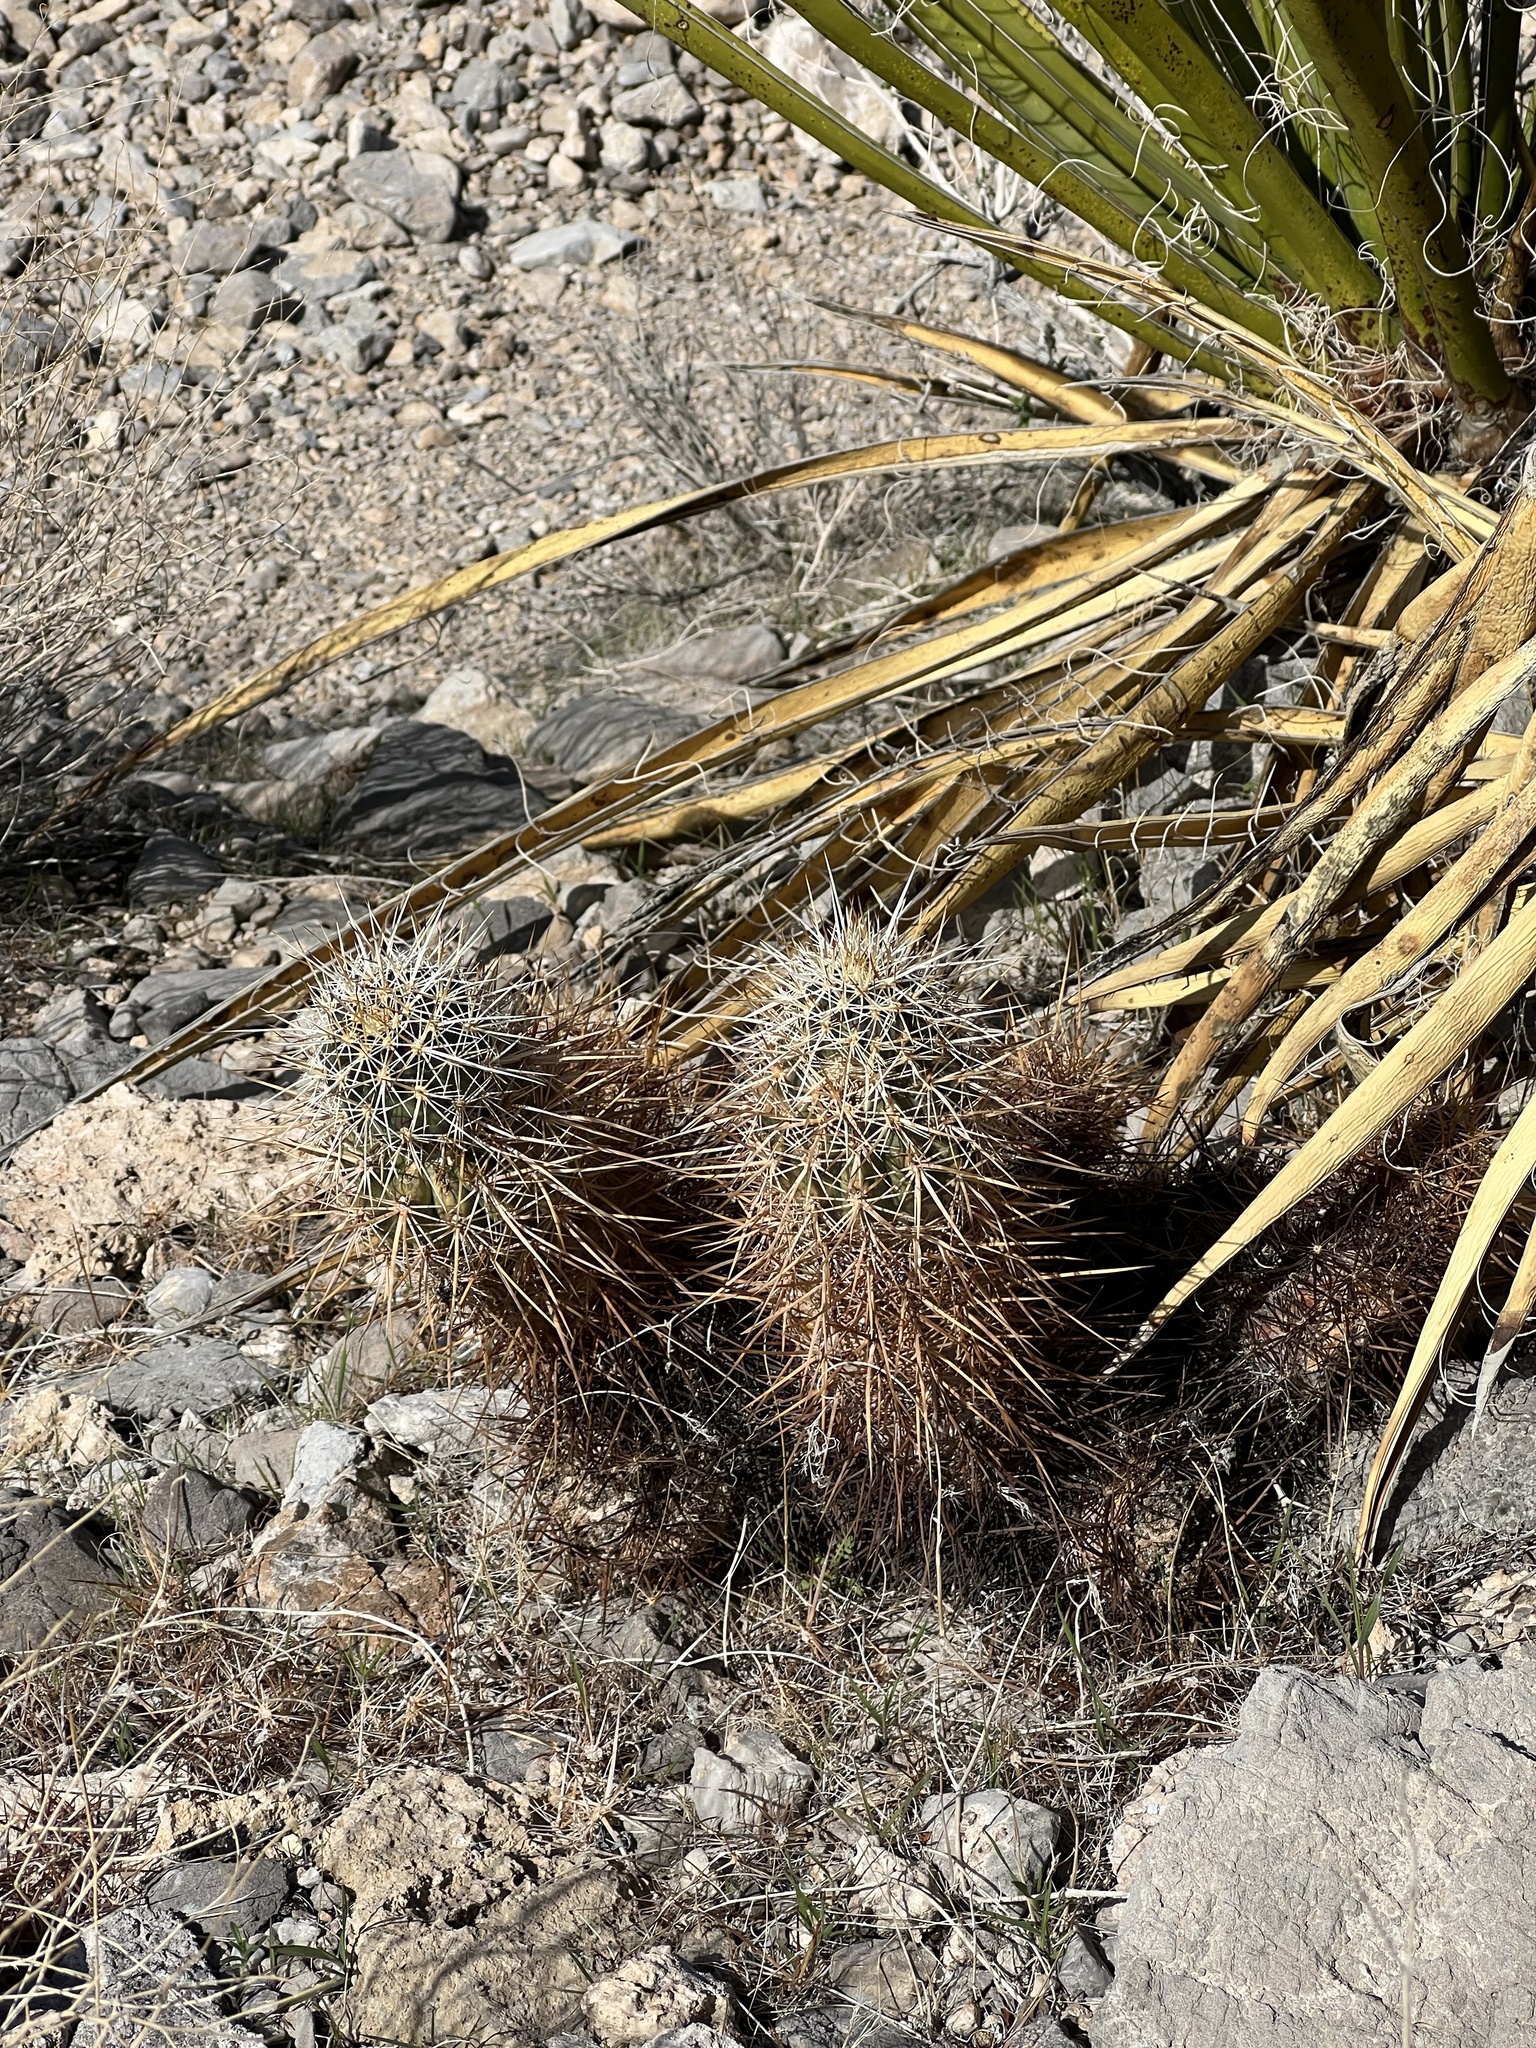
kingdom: Plantae
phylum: Tracheophyta
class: Magnoliopsida
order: Caryophyllales
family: Cactaceae
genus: Echinocereus
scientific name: Echinocereus engelmannii
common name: Engelmann's hedgehog cactus
